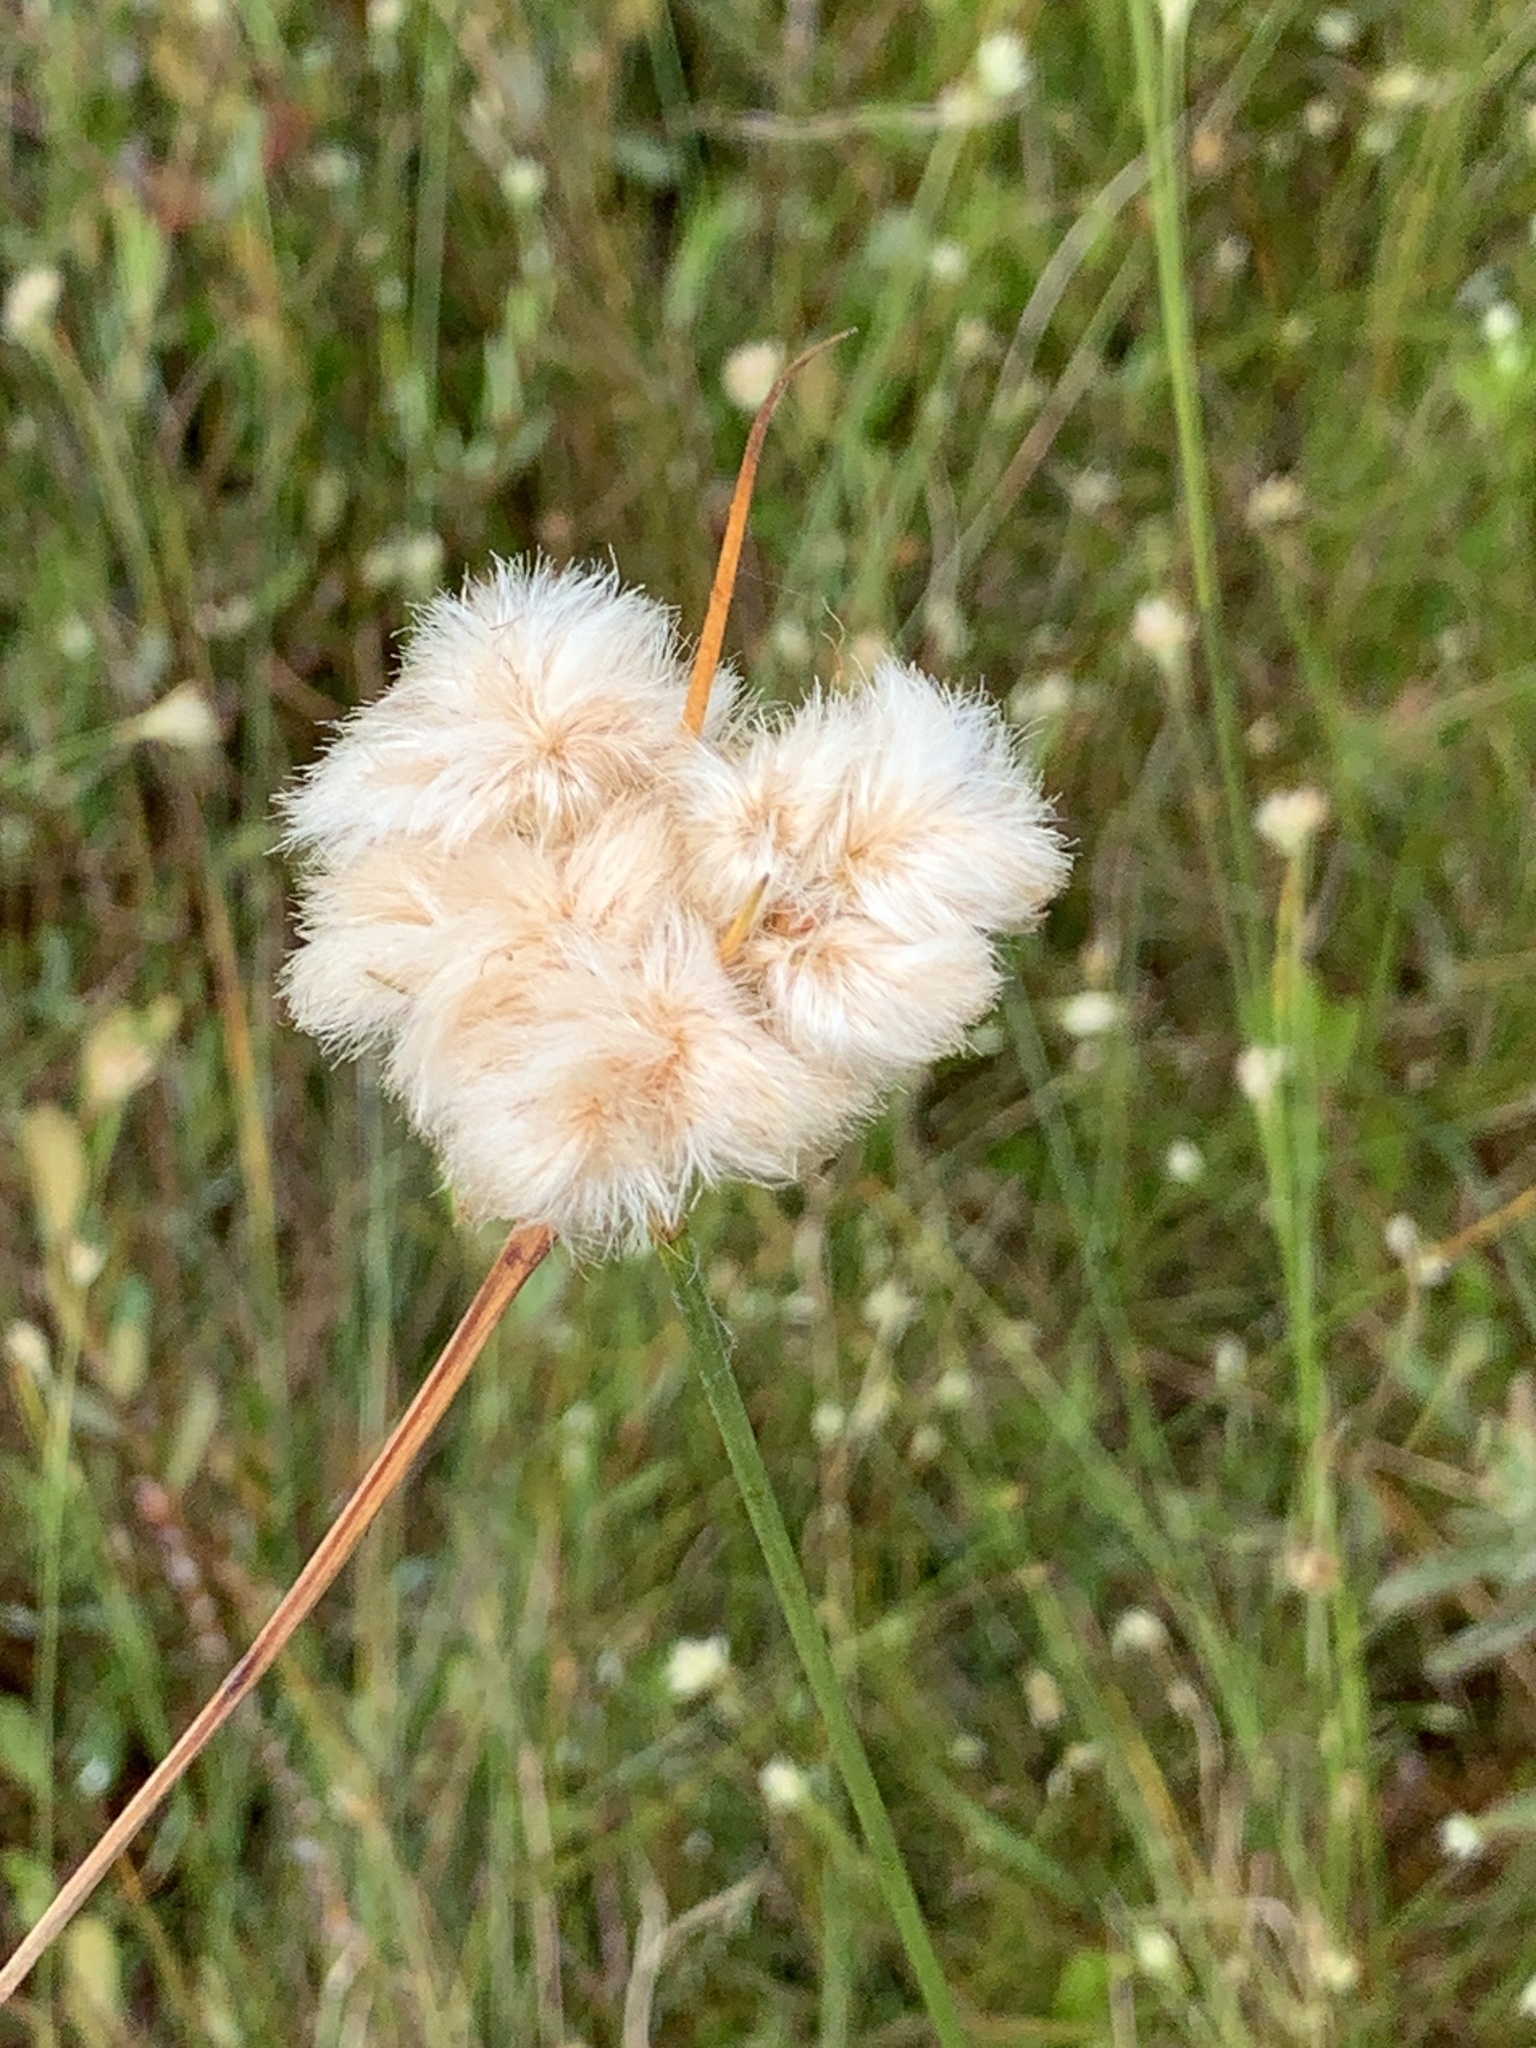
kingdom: Plantae
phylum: Tracheophyta
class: Liliopsida
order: Poales
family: Cyperaceae
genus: Eriophorum
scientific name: Eriophorum virginicum
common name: Tawny cottongrass
